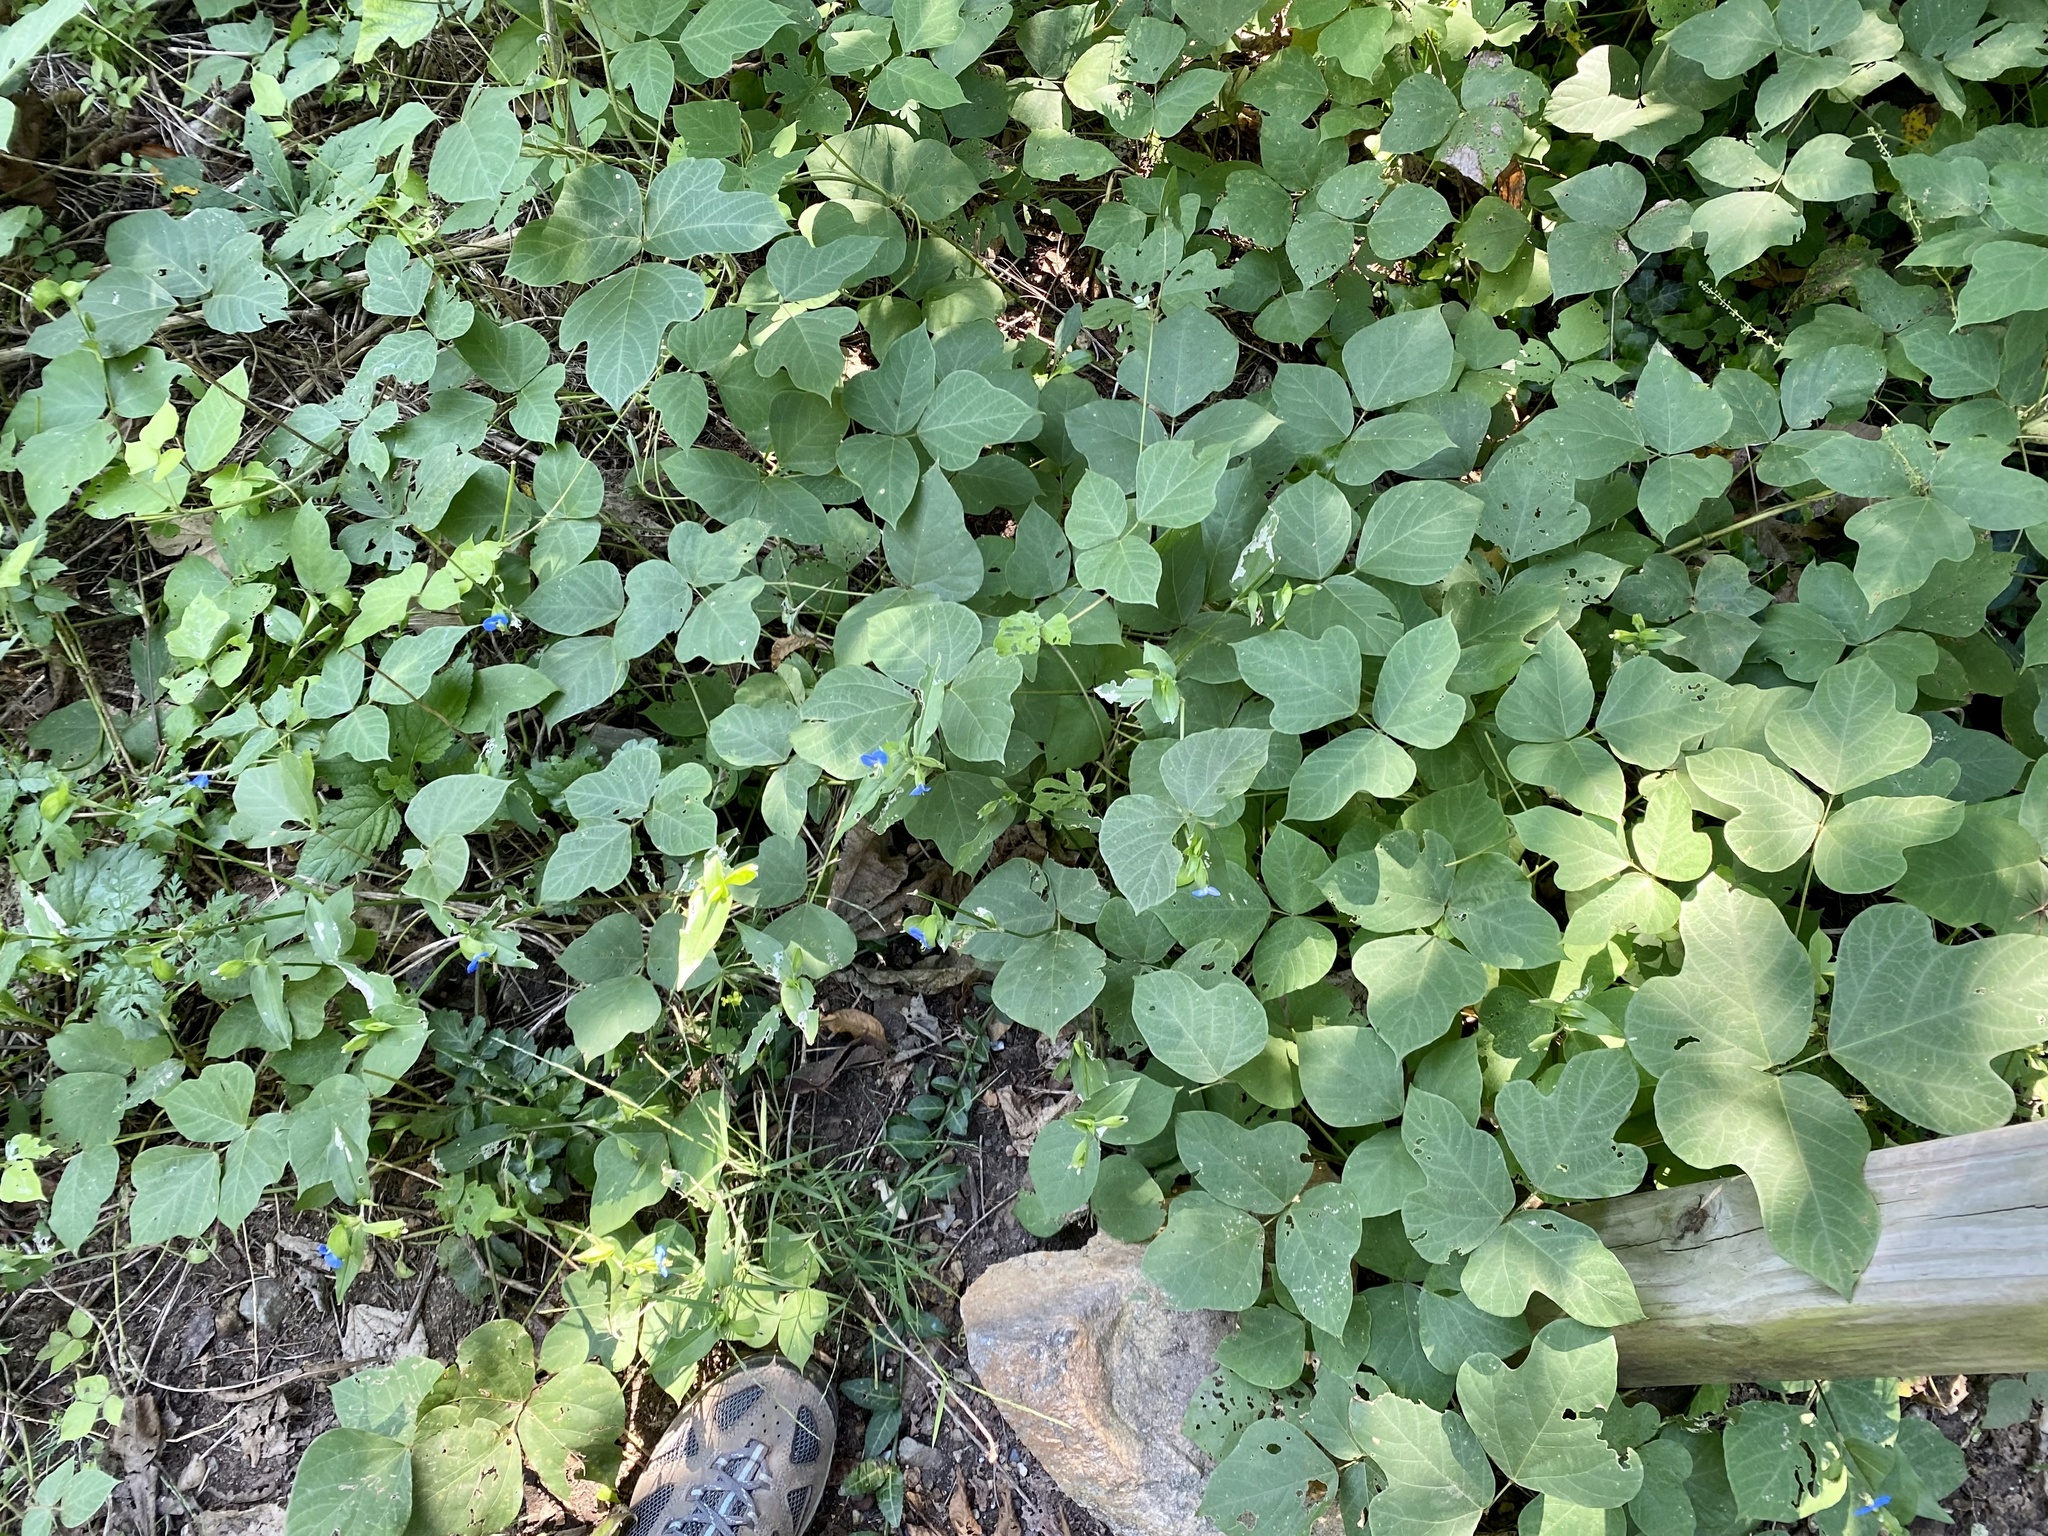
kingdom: Plantae
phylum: Tracheophyta
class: Magnoliopsida
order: Fabales
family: Fabaceae
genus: Pueraria
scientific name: Pueraria montana
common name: Kudzu
